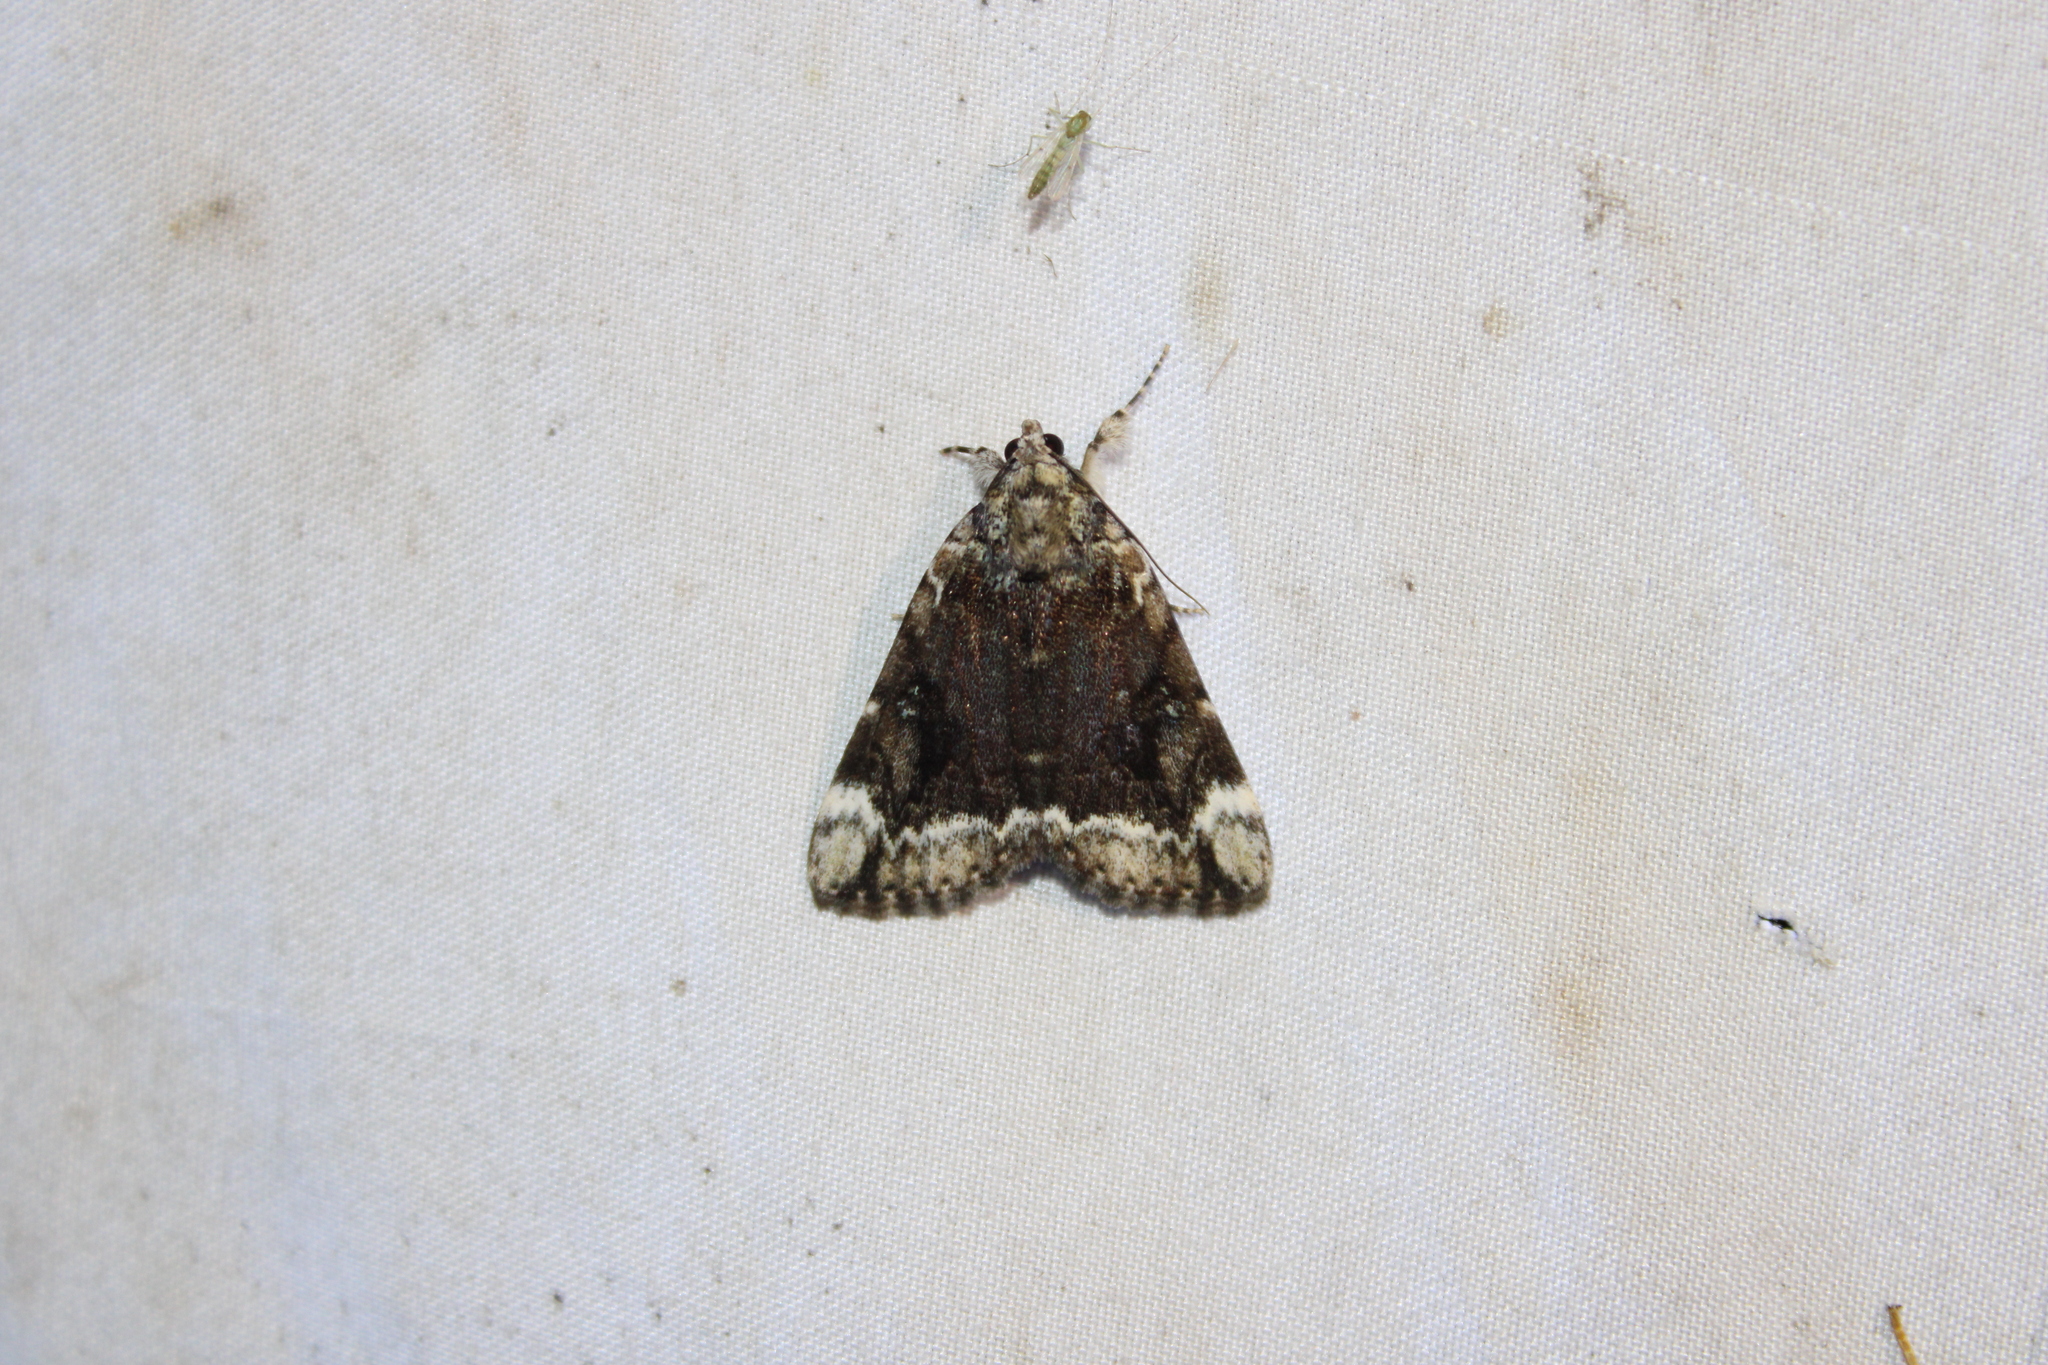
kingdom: Animalia
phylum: Arthropoda
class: Insecta
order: Lepidoptera
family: Erebidae
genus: Catocala
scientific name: Catocala micronympha
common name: Little nymph underwing
